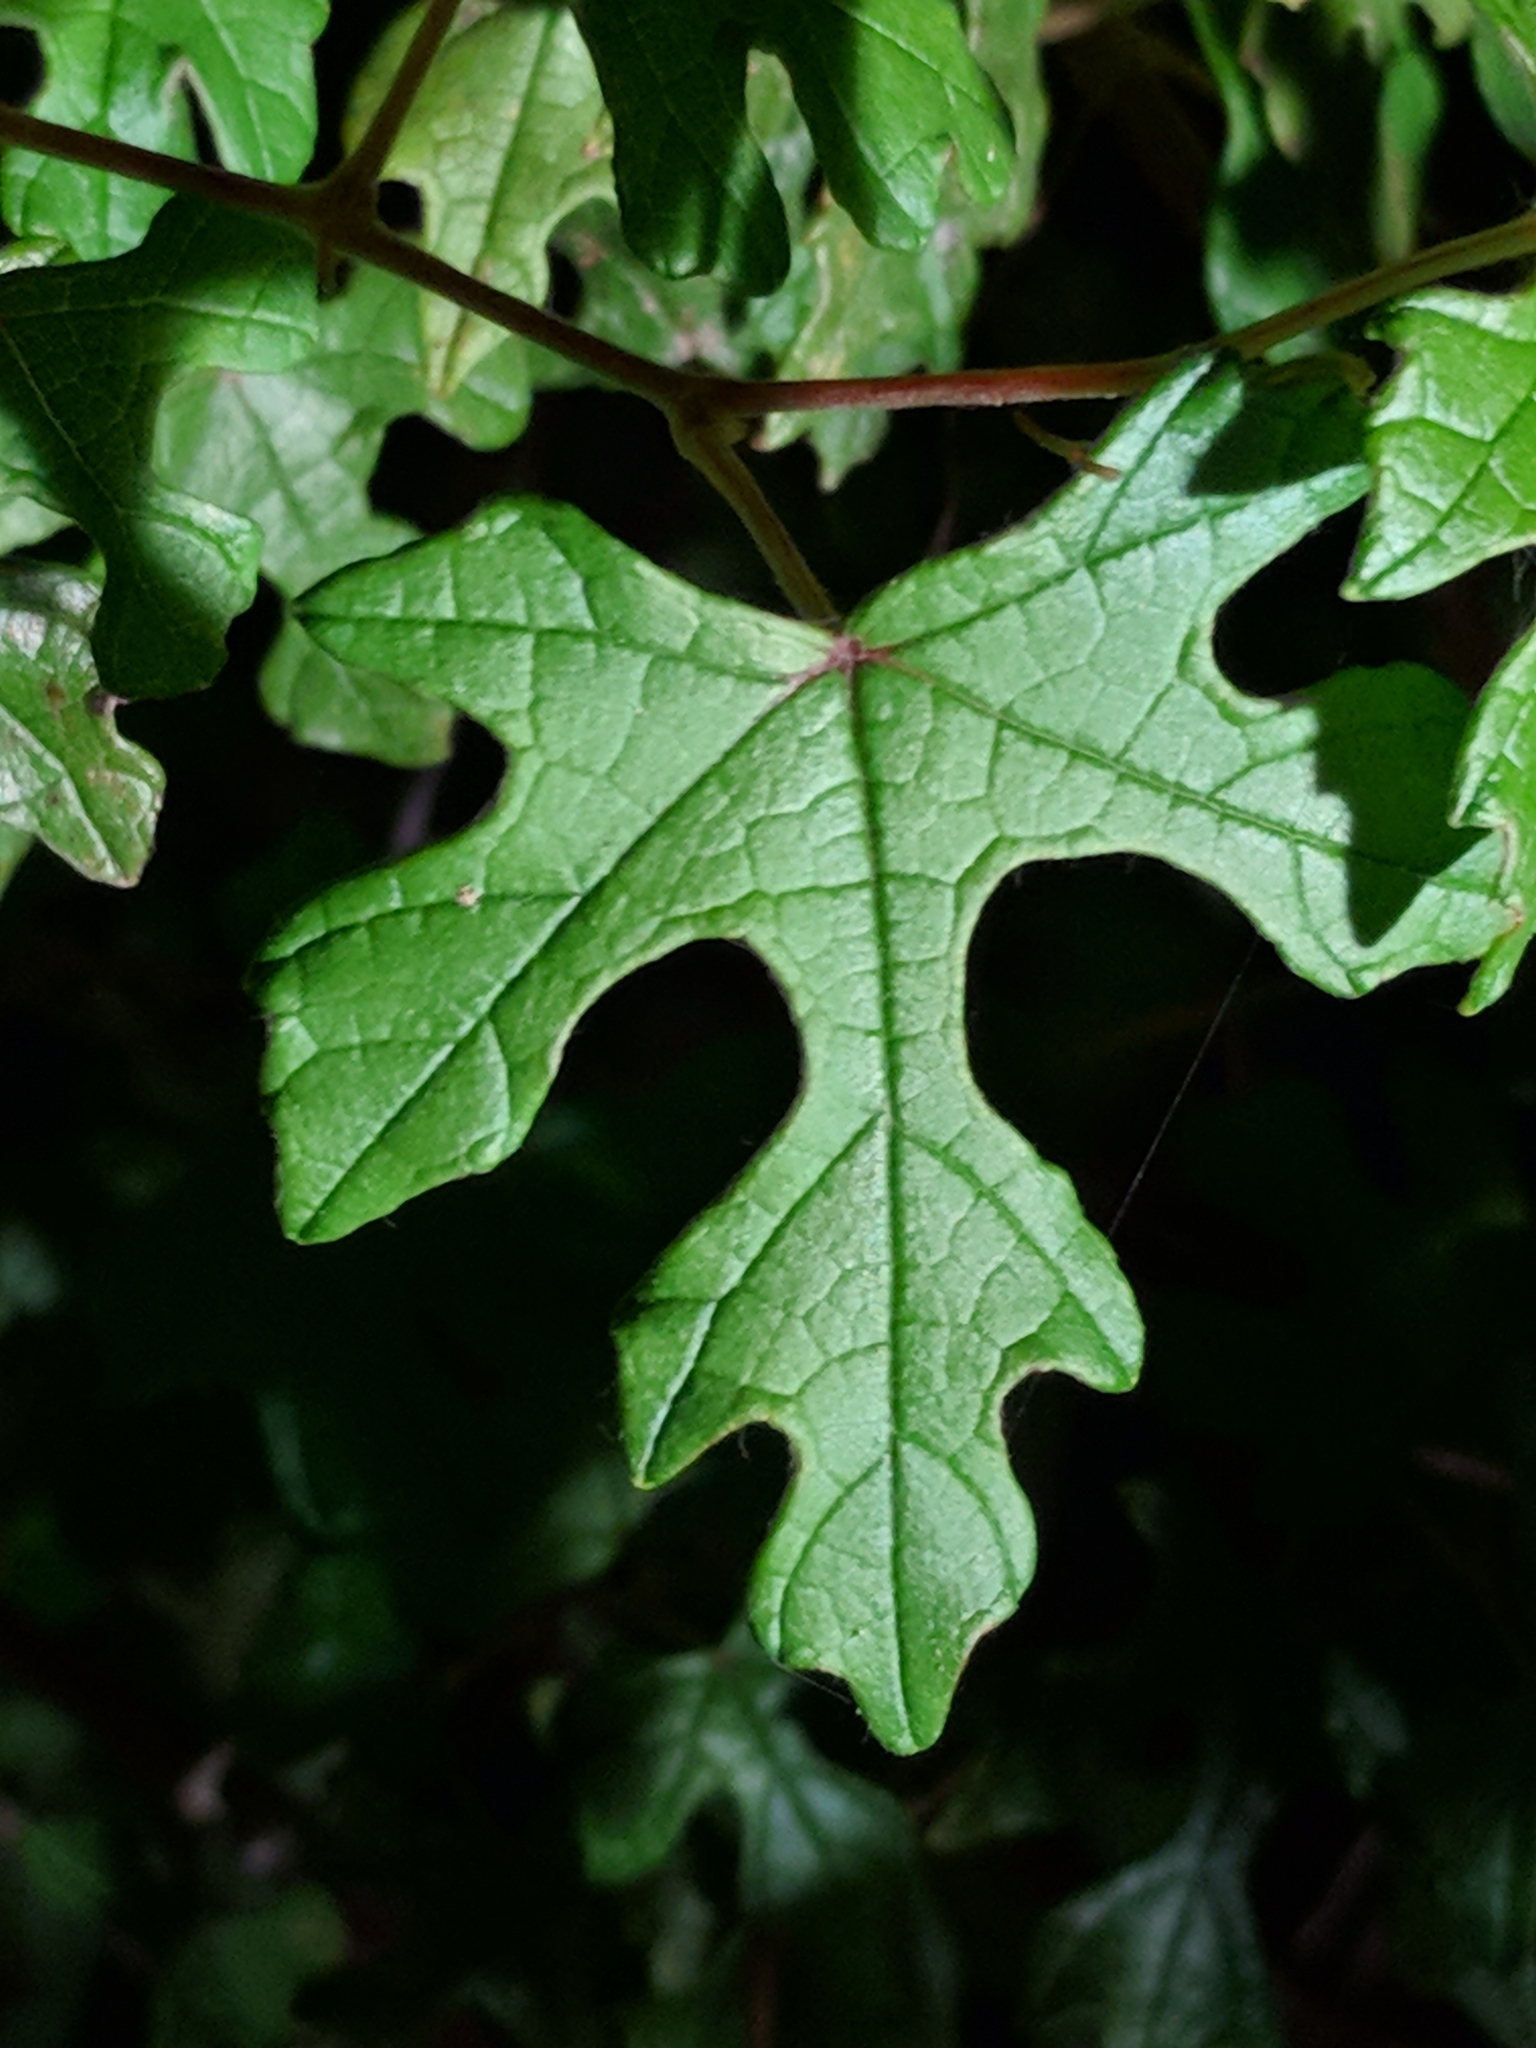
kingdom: Plantae
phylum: Tracheophyta
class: Magnoliopsida
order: Vitales
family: Vitaceae
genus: Vitis
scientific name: Vitis mustangensis
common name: Mustang grape
